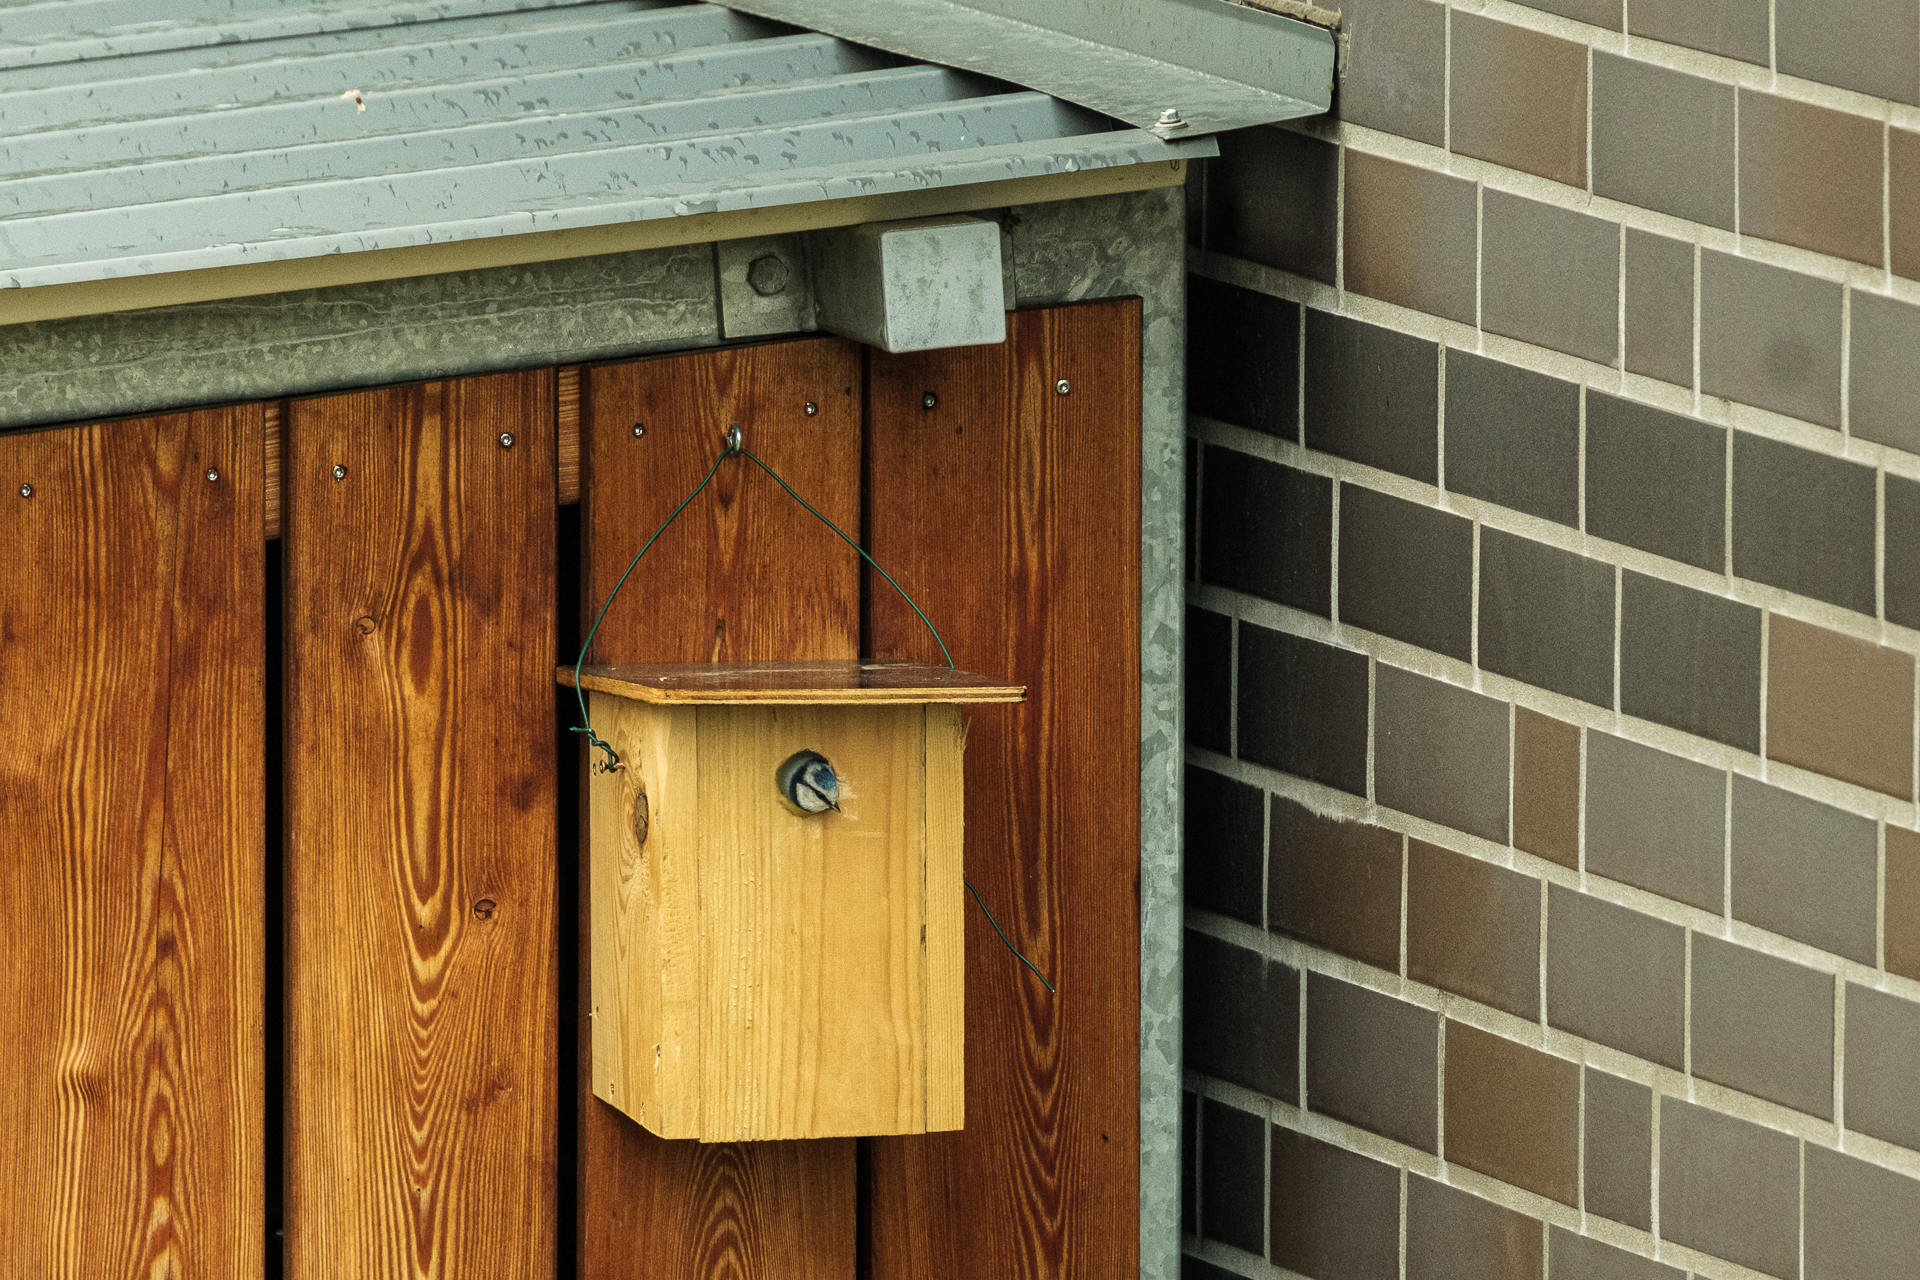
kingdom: Animalia
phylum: Chordata
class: Aves
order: Passeriformes
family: Paridae
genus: Cyanistes
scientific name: Cyanistes caeruleus
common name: Eurasian blue tit
